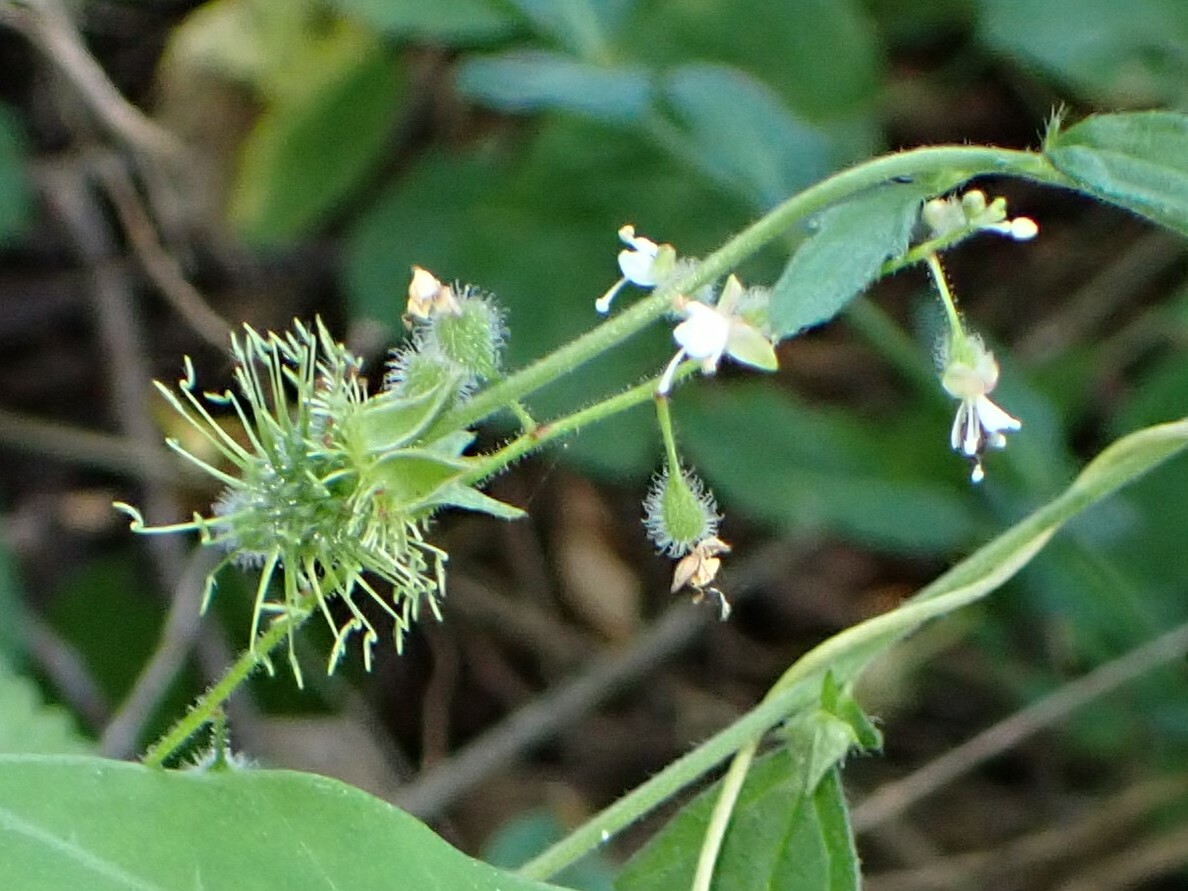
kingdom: Plantae
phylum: Tracheophyta
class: Magnoliopsida
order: Myrtales
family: Onagraceae
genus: Circaea
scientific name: Circaea canadensis
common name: Broad-leaved enchanter's nightshade
